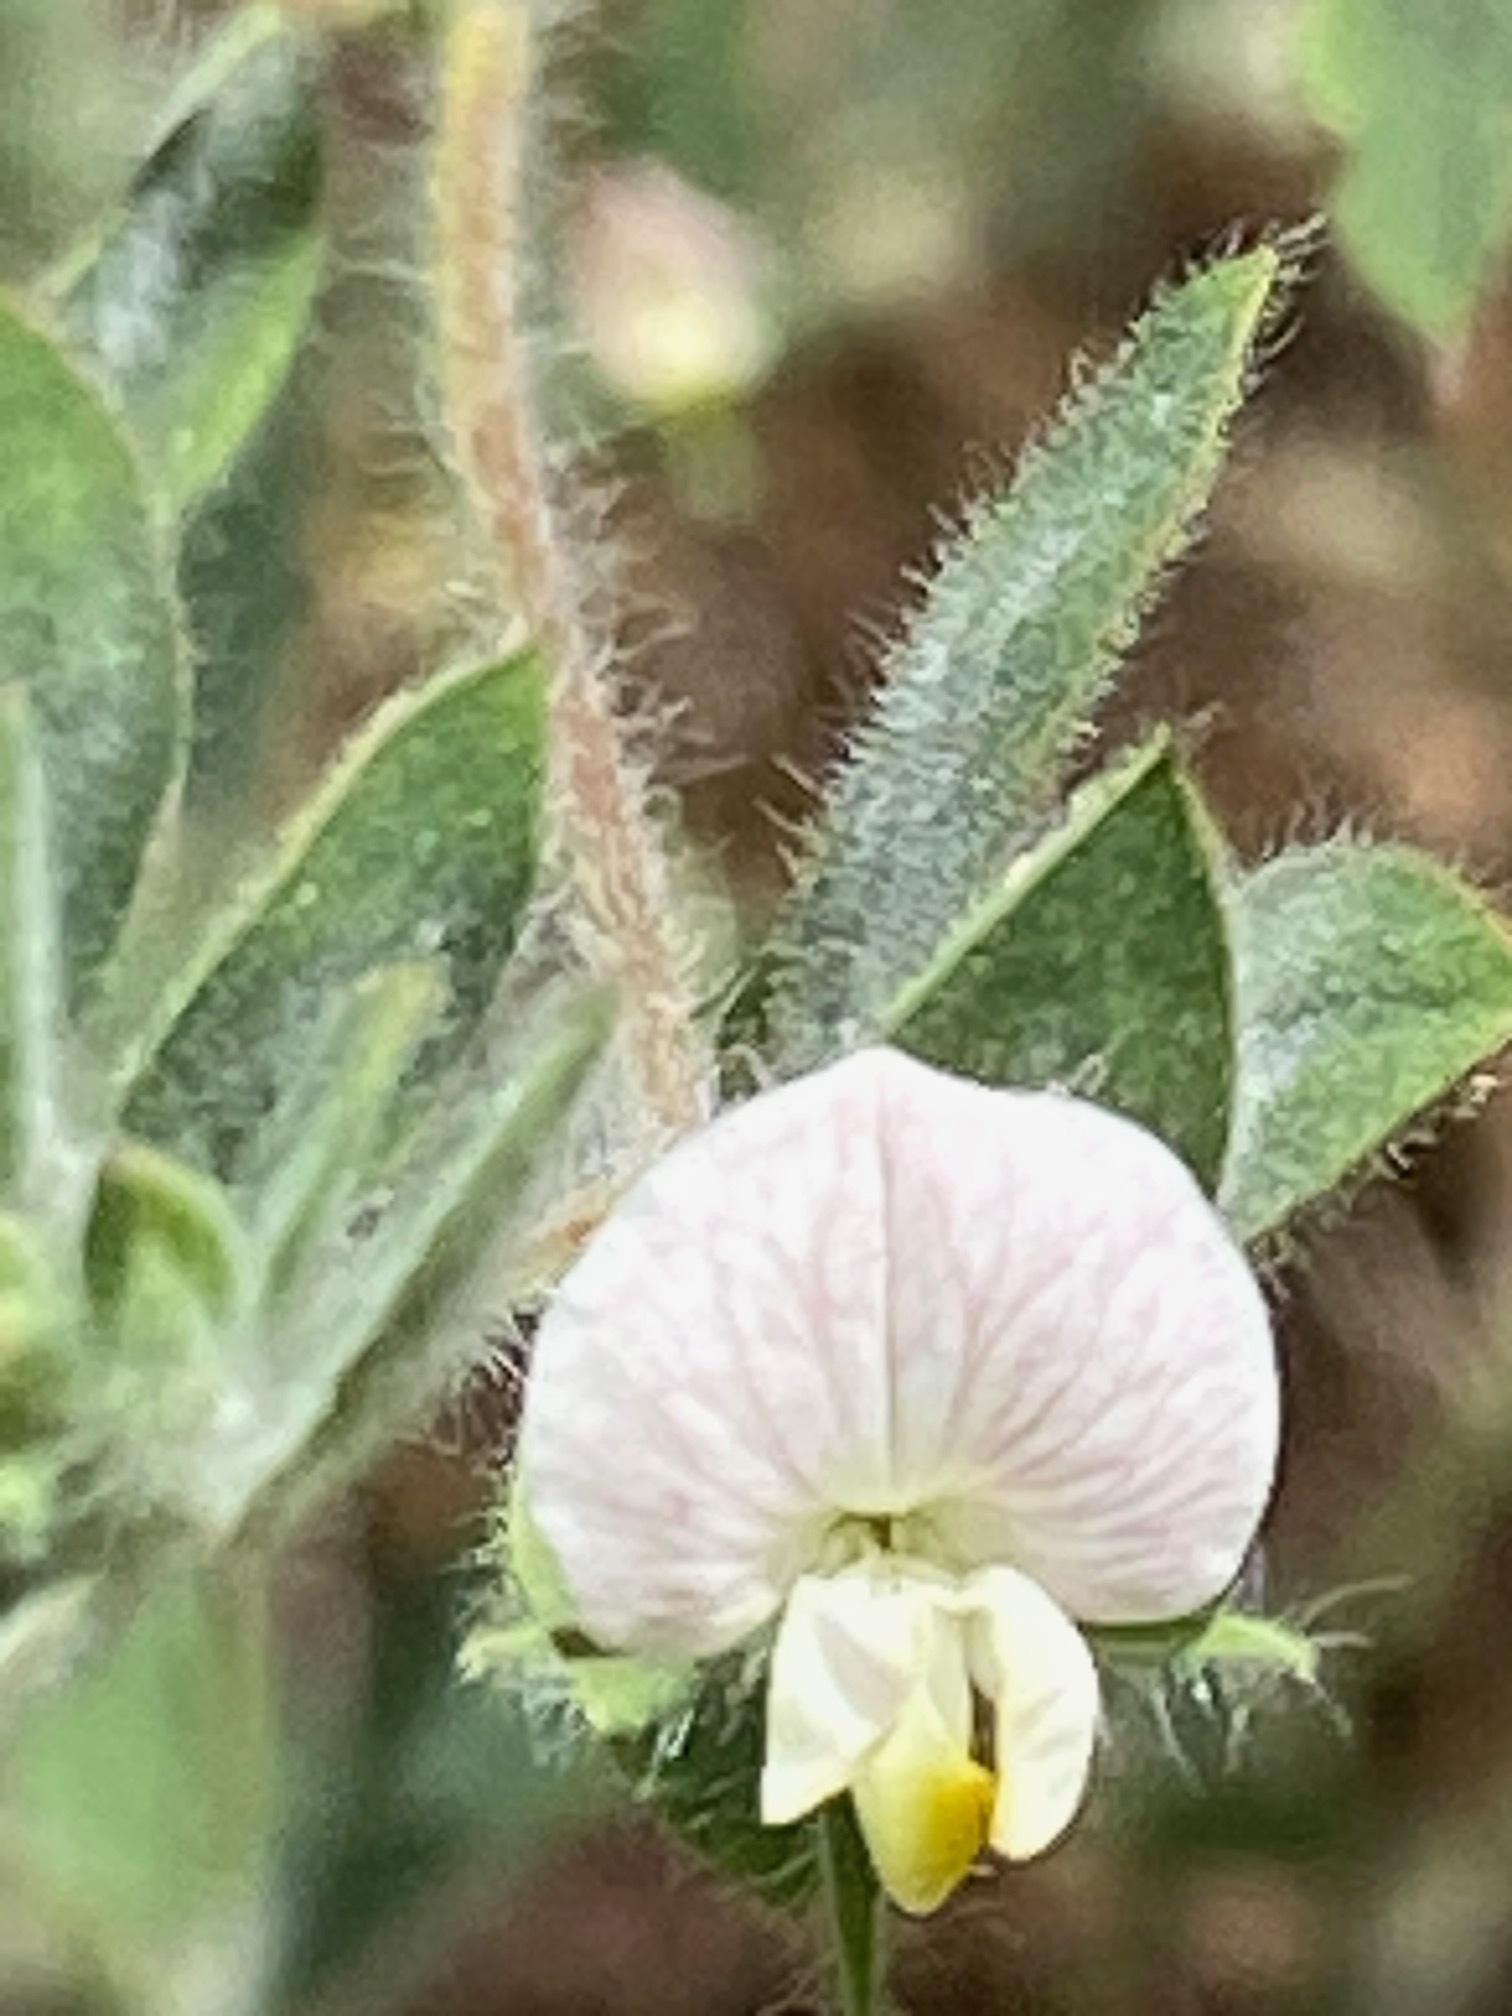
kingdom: Plantae
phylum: Tracheophyta
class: Magnoliopsida
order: Fabales
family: Fabaceae
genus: Acmispon
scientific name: Acmispon americanus
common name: American bird's-foot trefoil
